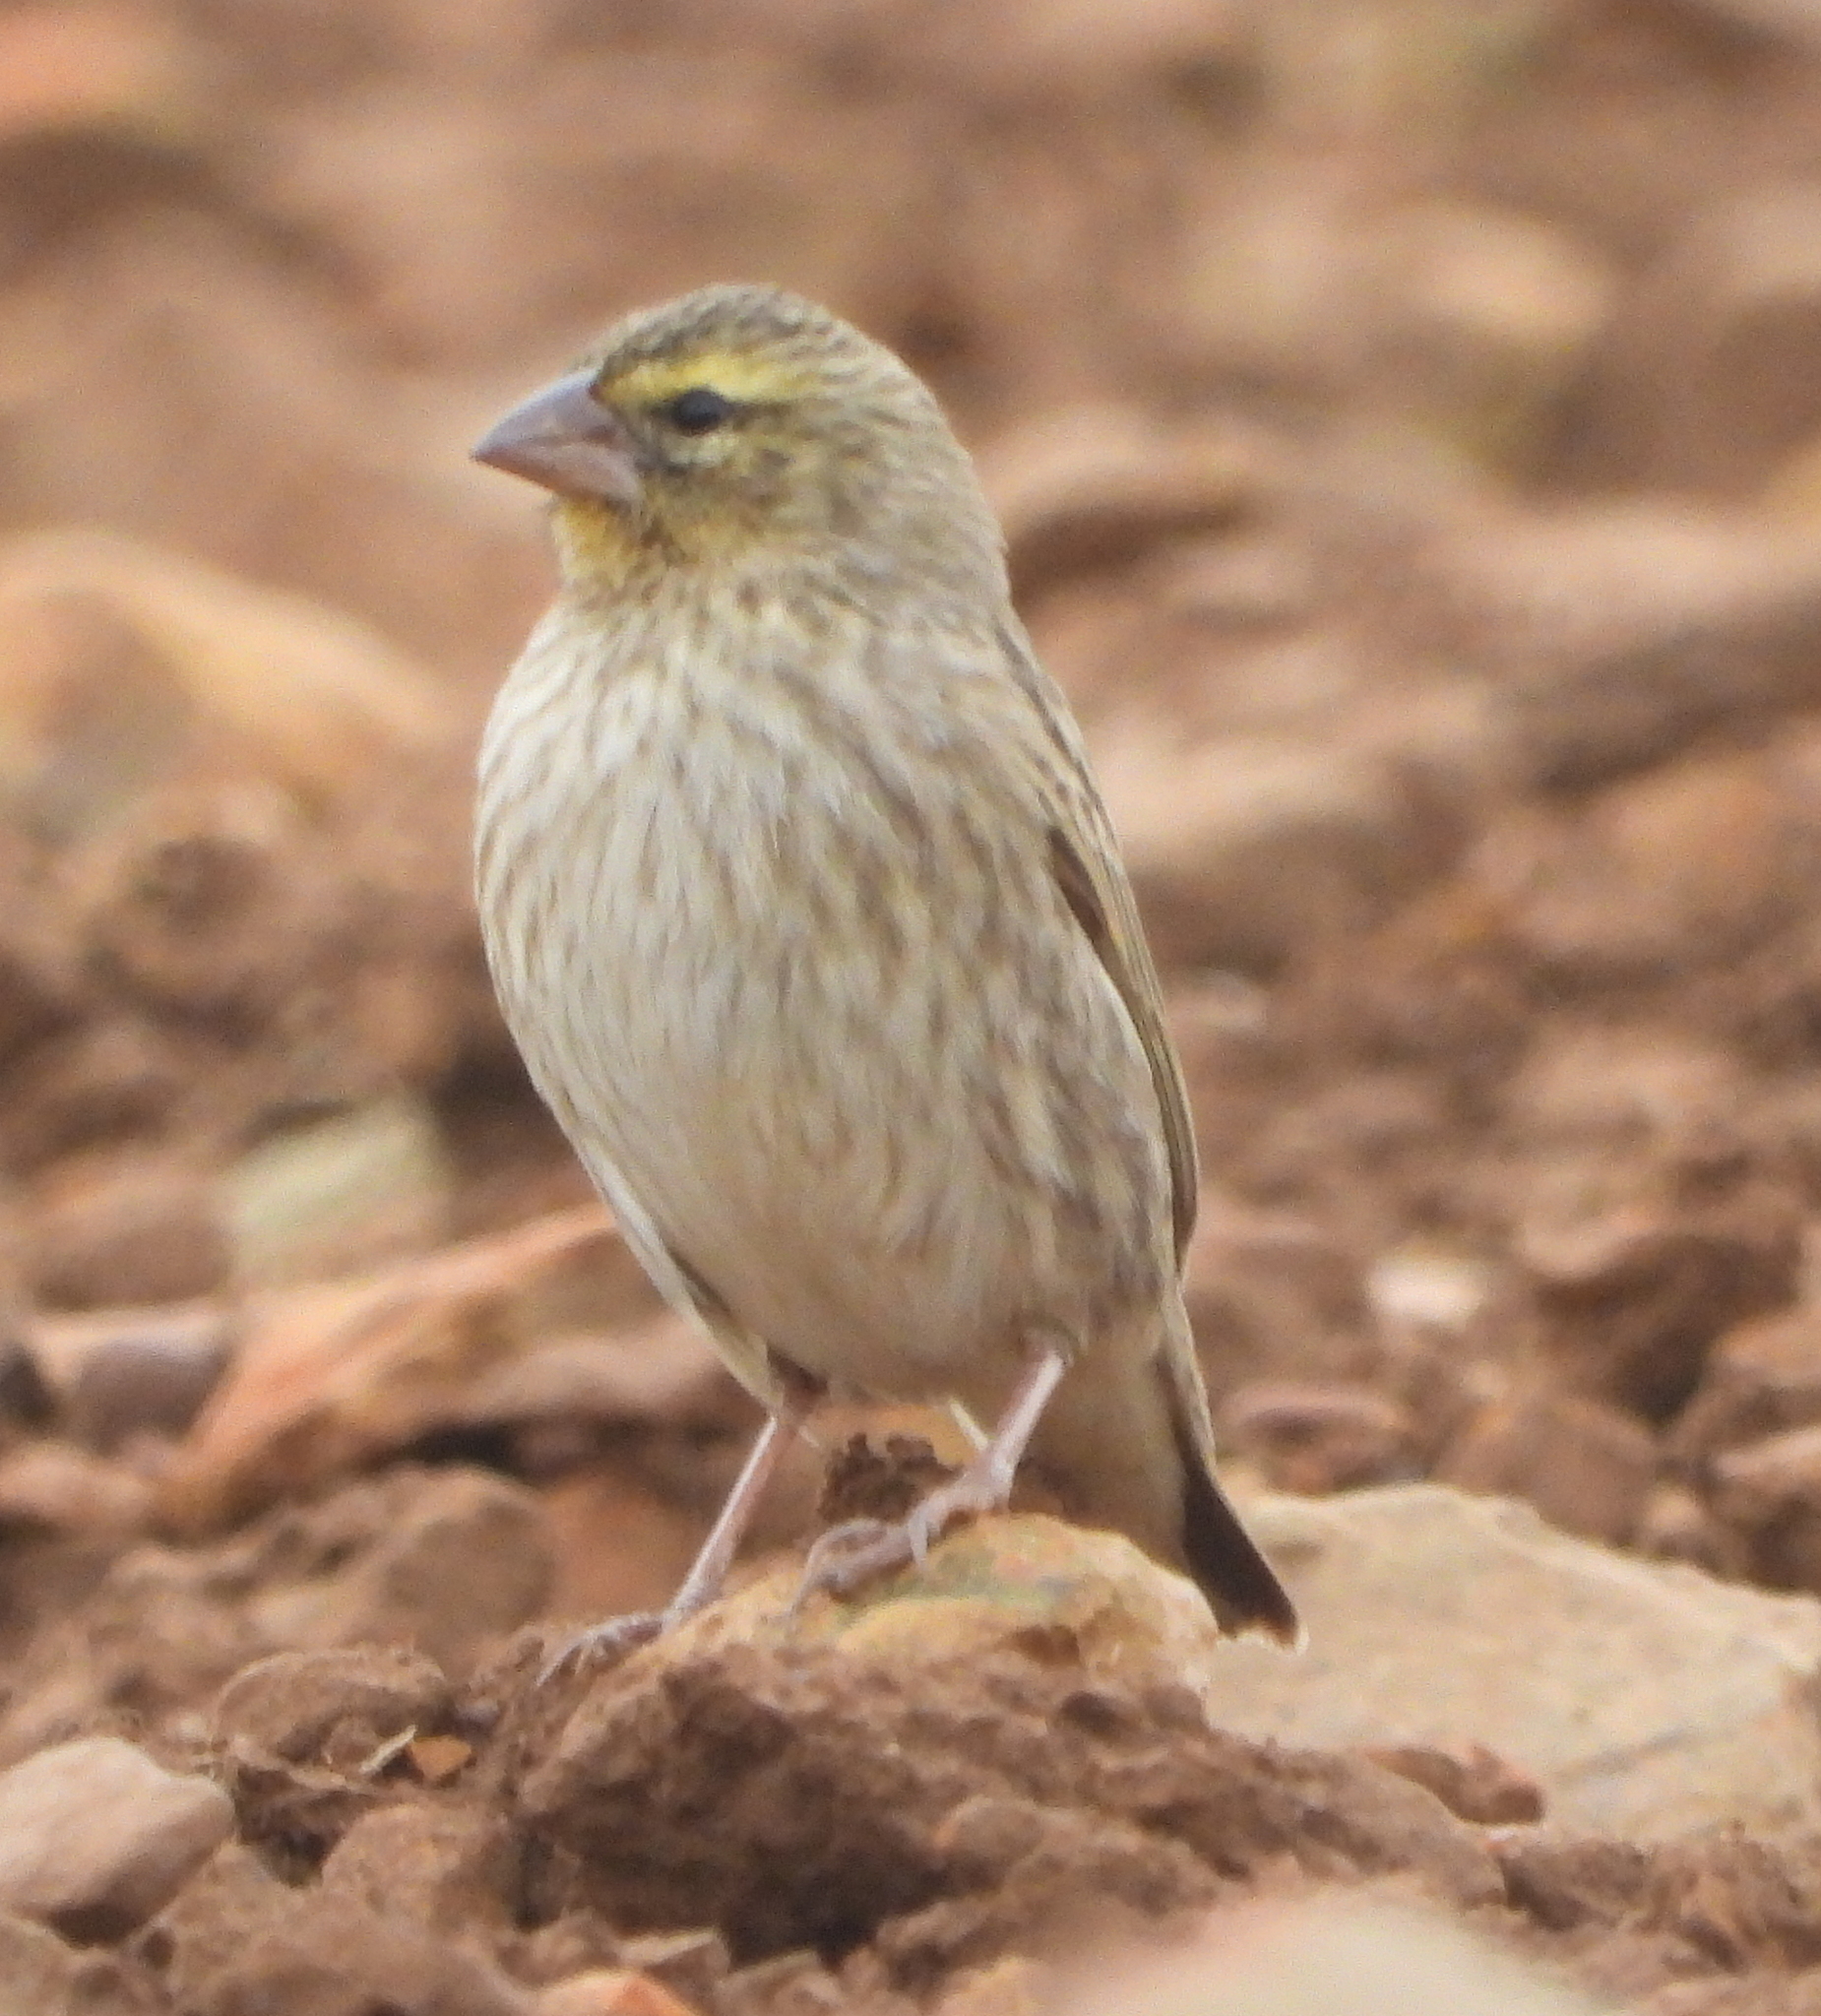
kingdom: Animalia
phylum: Chordata
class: Aves
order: Passeriformes
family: Ploceidae
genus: Euplectes
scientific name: Euplectes orix
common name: Southern red bishop
